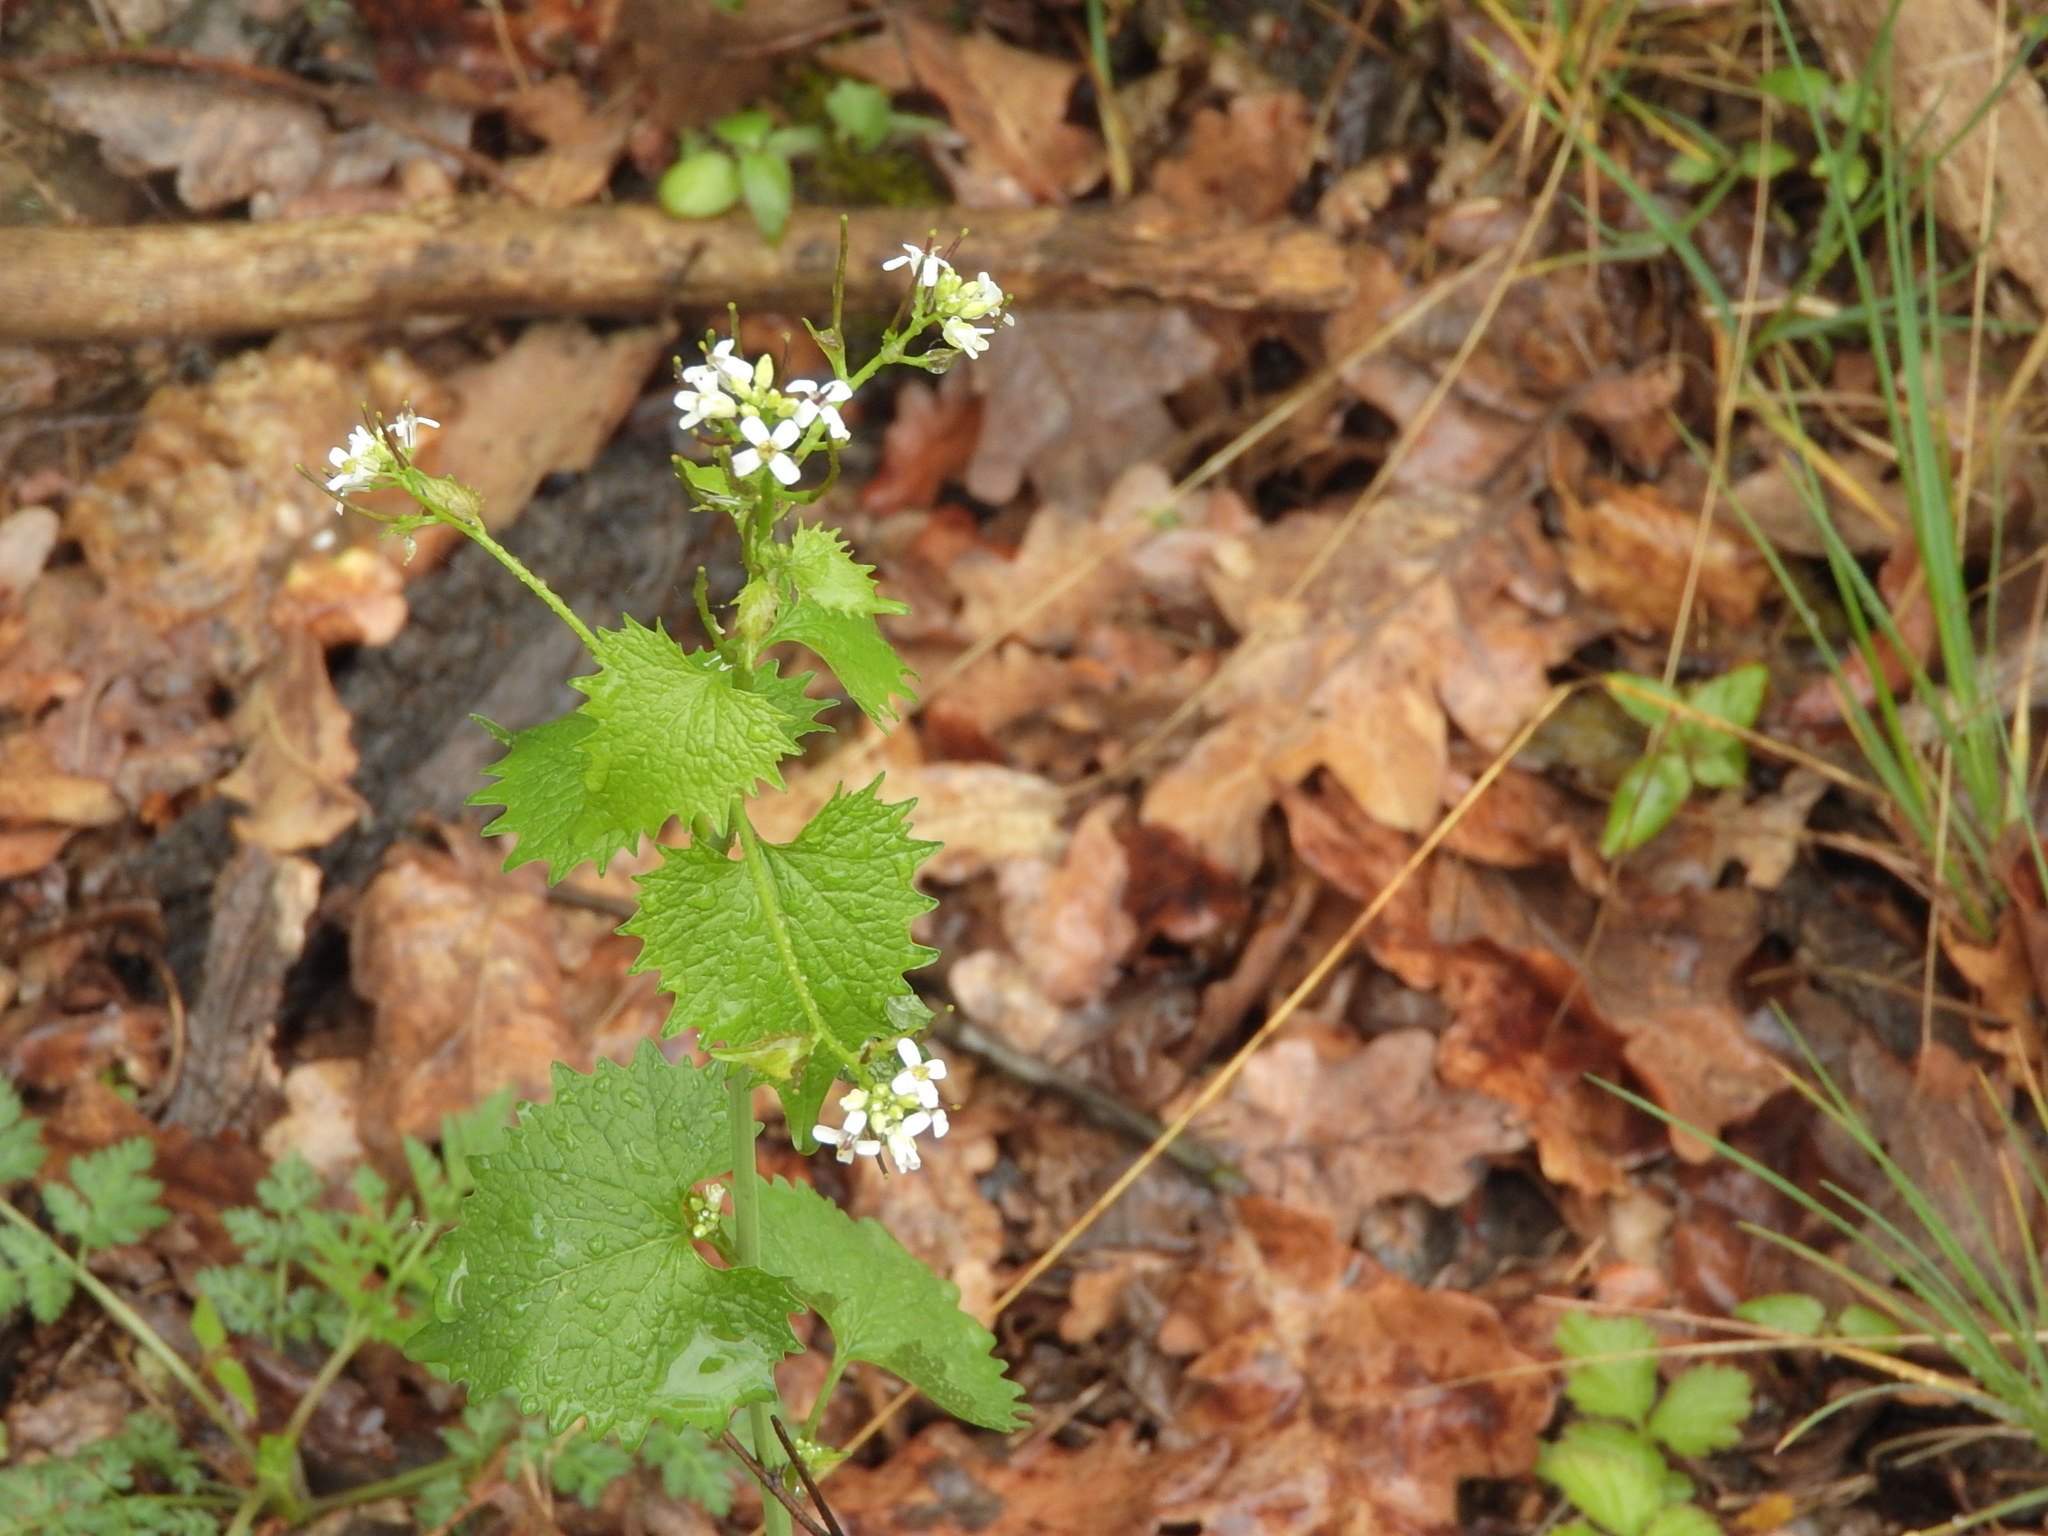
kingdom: Plantae
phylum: Tracheophyta
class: Magnoliopsida
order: Brassicales
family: Brassicaceae
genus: Alliaria
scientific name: Alliaria petiolata
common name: Garlic mustard
